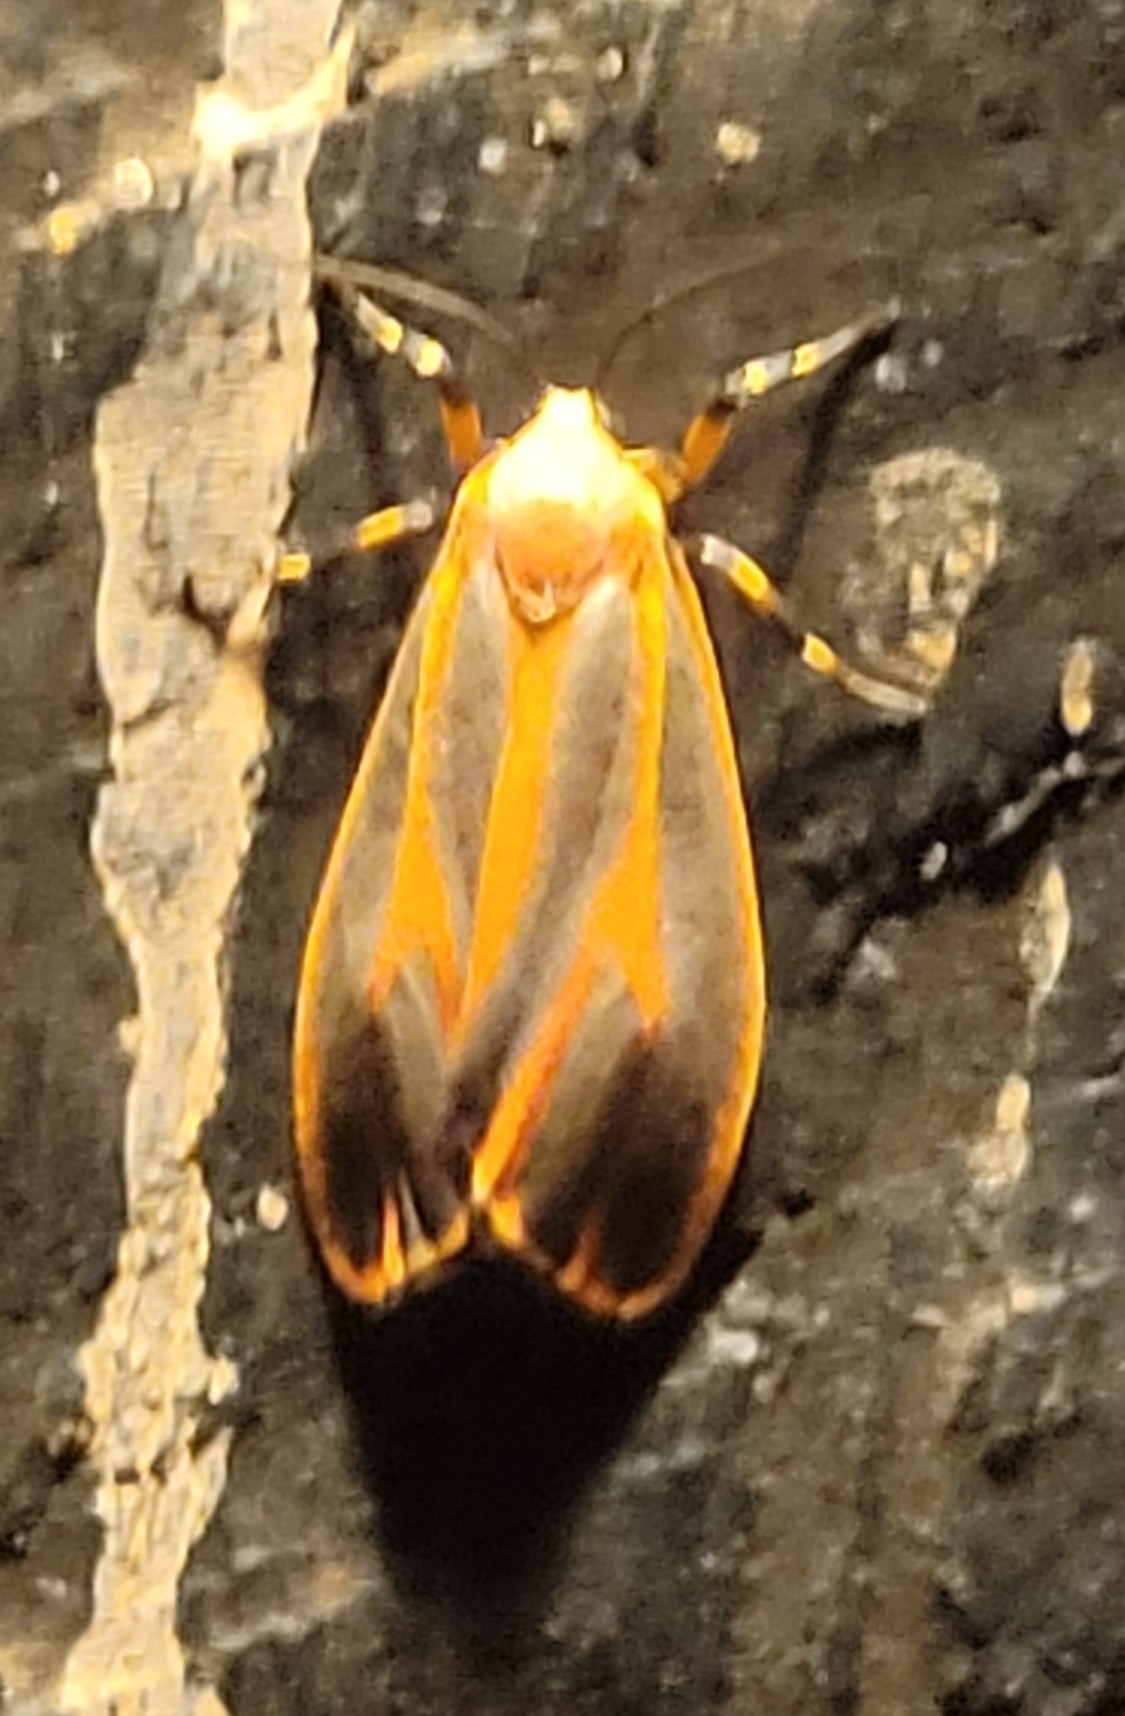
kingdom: Animalia
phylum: Arthropoda
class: Insecta
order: Lepidoptera
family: Erebidae
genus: Hypoprepia
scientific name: Hypoprepia fucosa
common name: Painted lichen moth
